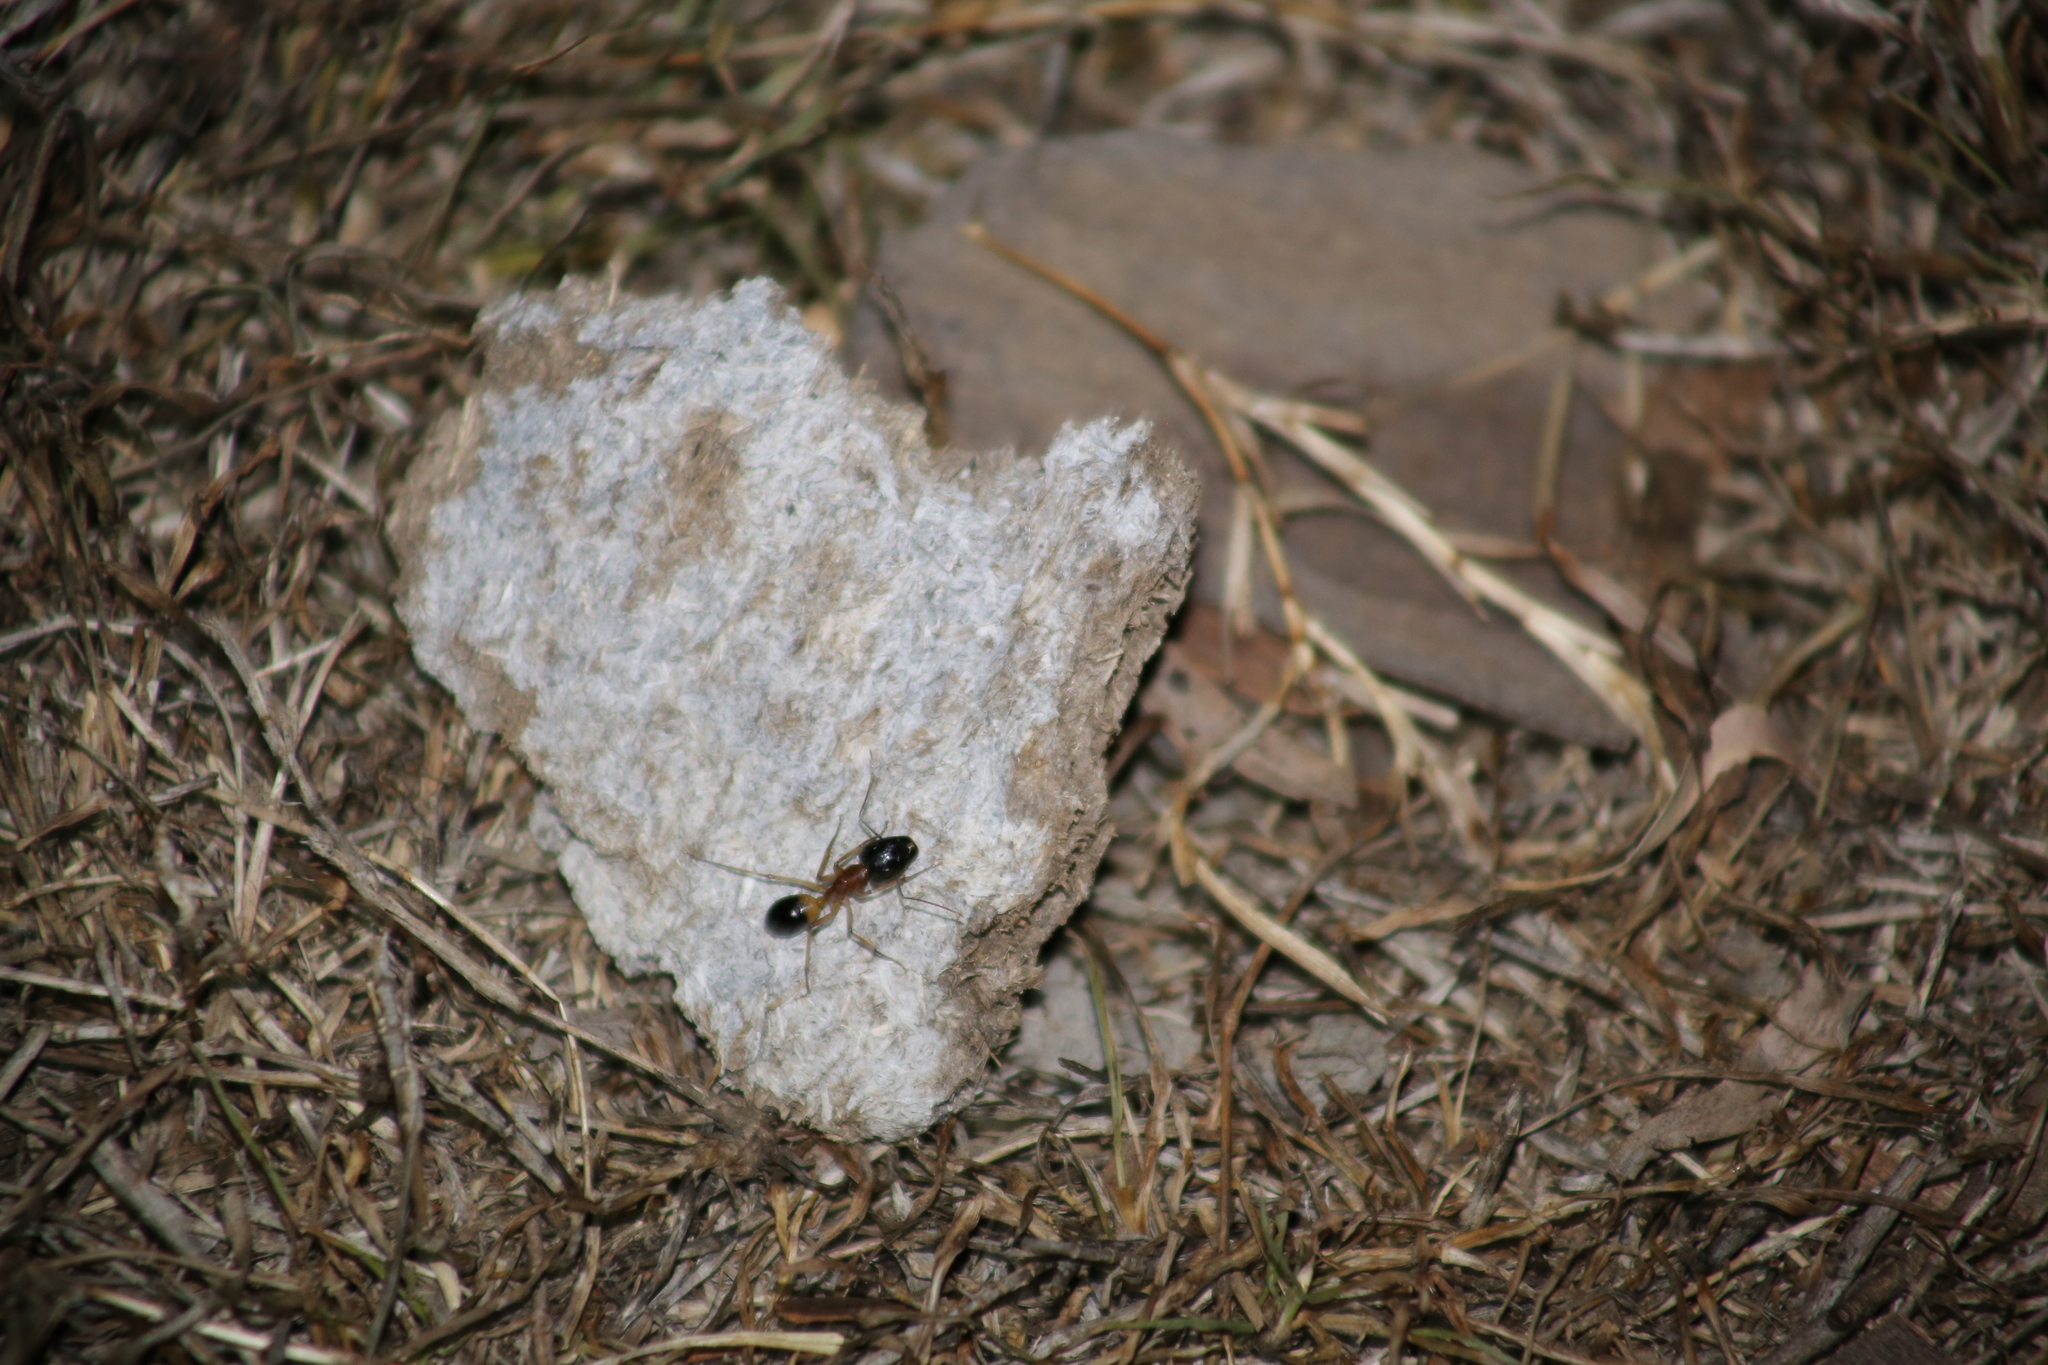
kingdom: Animalia
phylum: Arthropoda
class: Insecta
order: Hymenoptera
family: Formicidae
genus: Camponotus
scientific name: Camponotus consobrinus
